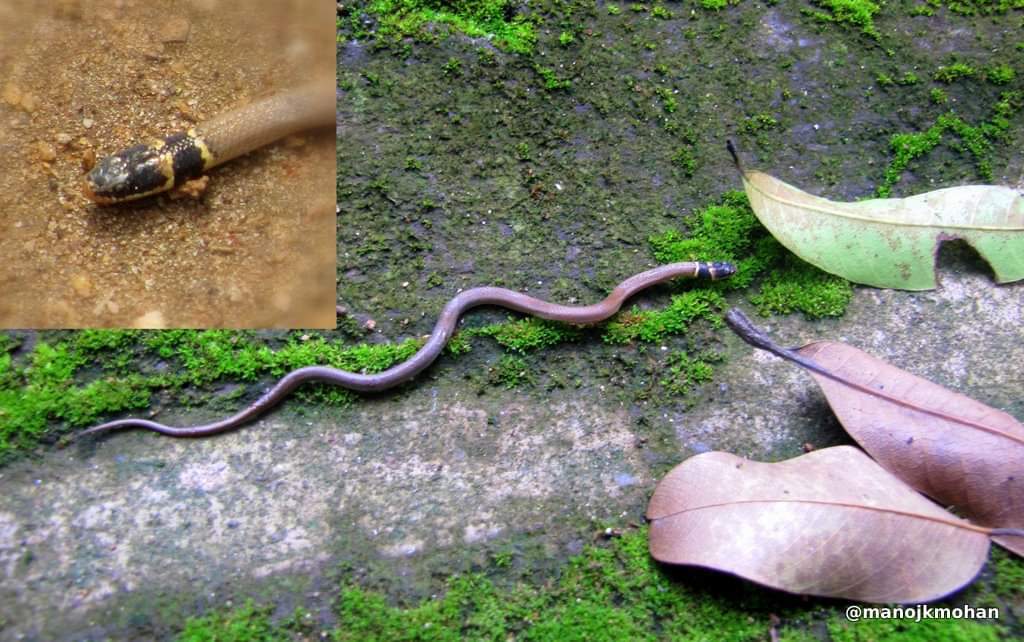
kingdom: Animalia
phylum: Chordata
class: Squamata
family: Colubridae
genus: Sibynophis
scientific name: Sibynophis subpunctatus
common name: Black-headed snake
